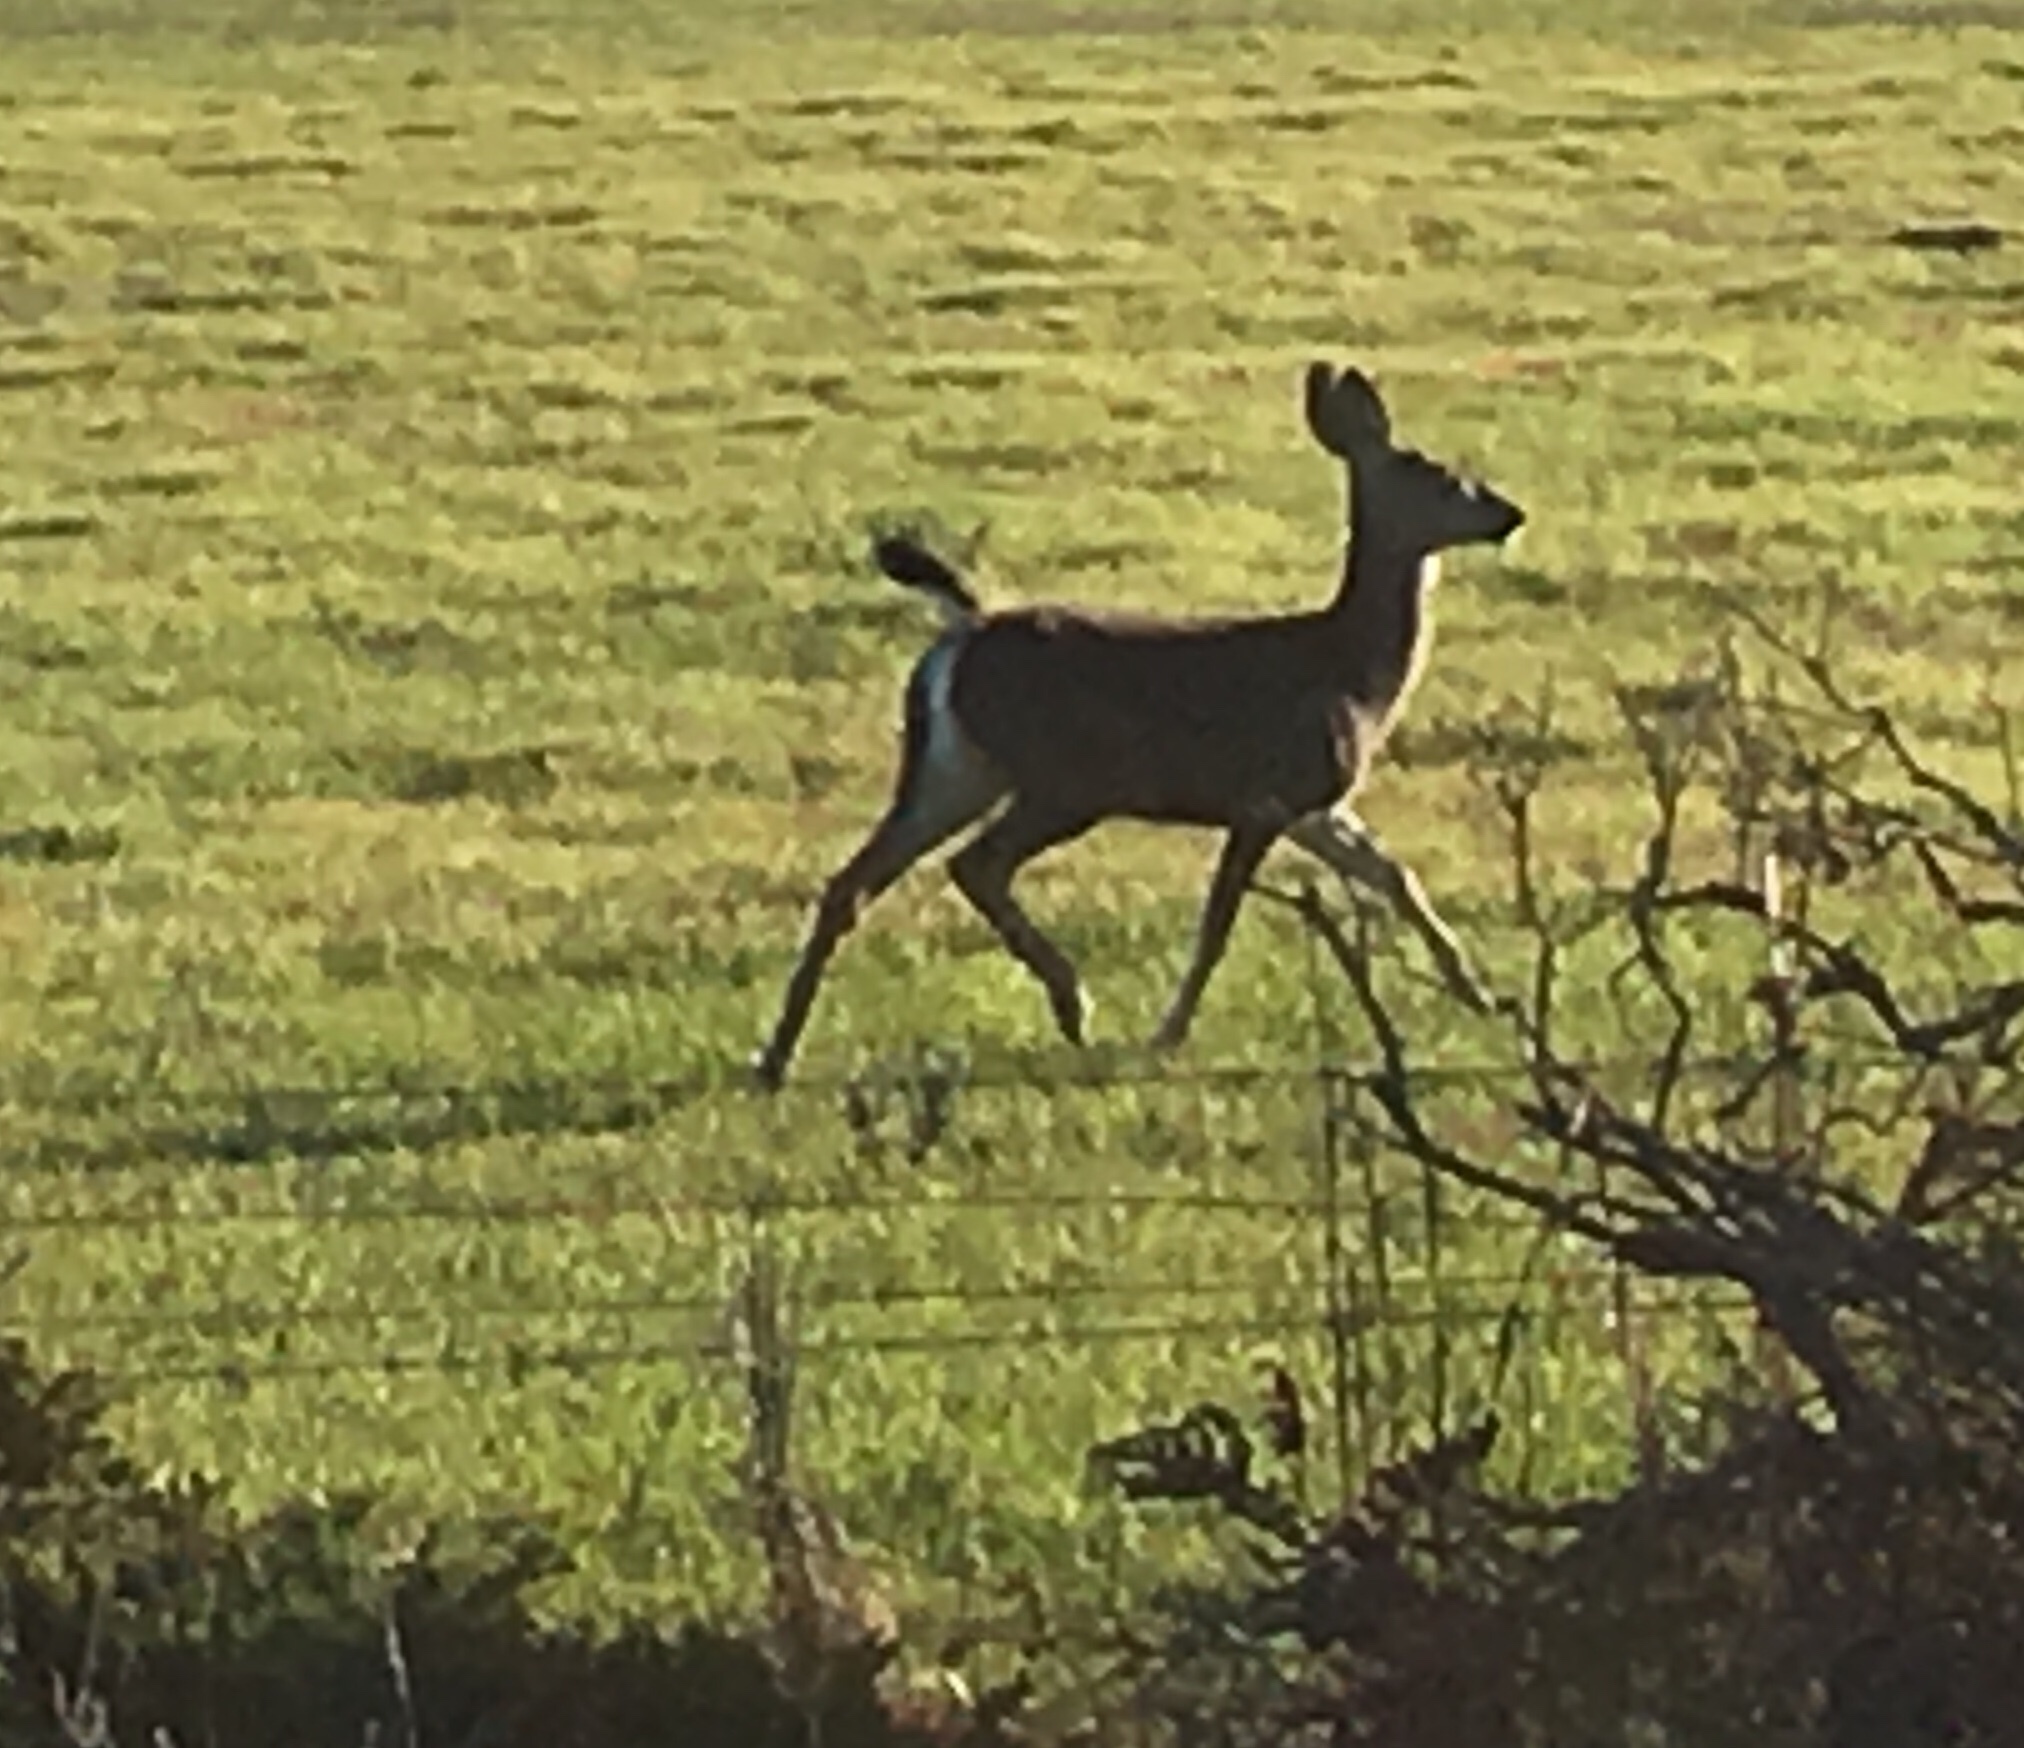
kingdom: Animalia
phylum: Chordata
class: Mammalia
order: Artiodactyla
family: Cervidae
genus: Odocoileus
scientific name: Odocoileus hemionus
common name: Mule deer
